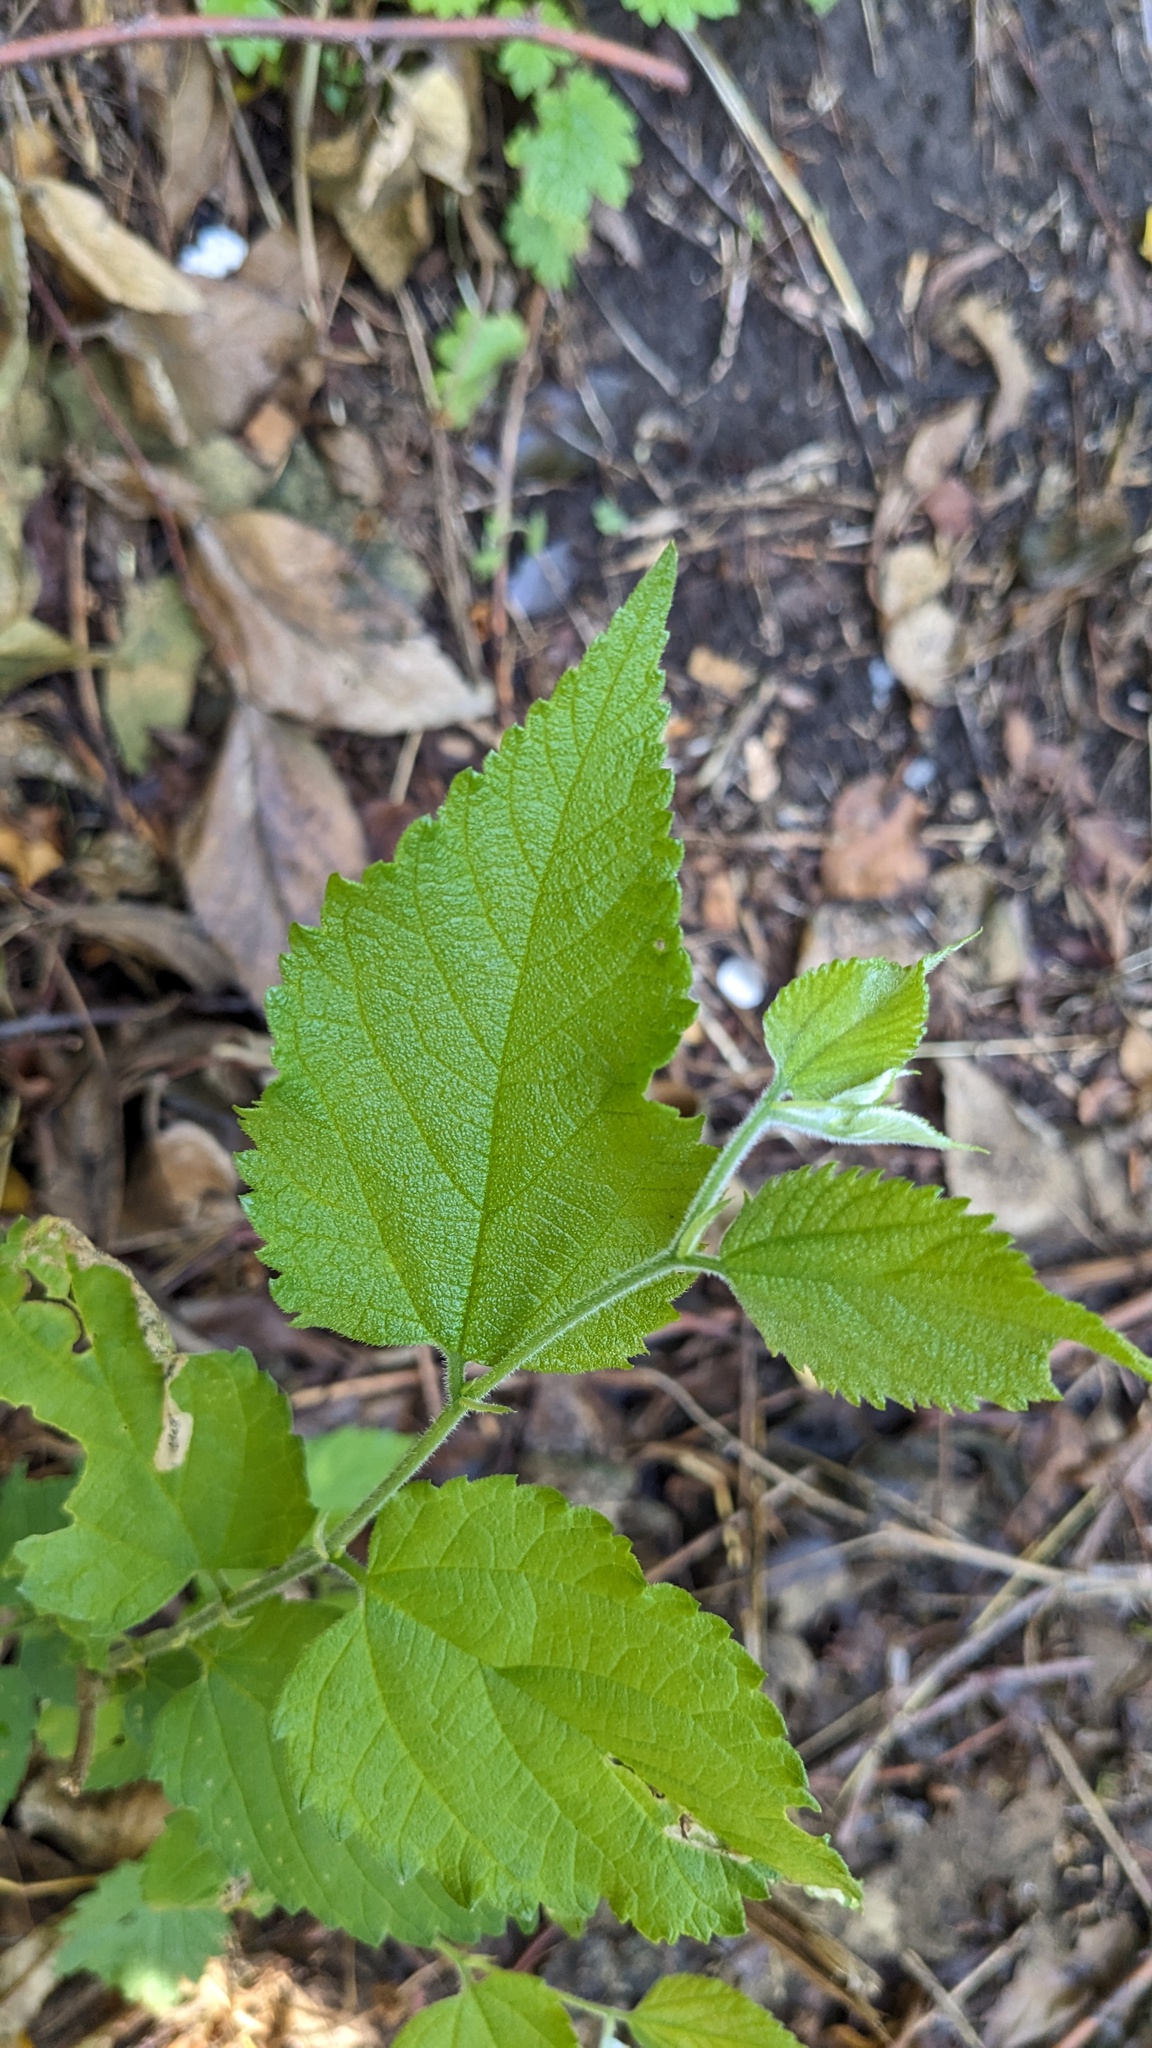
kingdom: Plantae
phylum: Tracheophyta
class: Magnoliopsida
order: Rosales
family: Cannabaceae
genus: Celtis
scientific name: Celtis occidentalis
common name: Common hackberry
